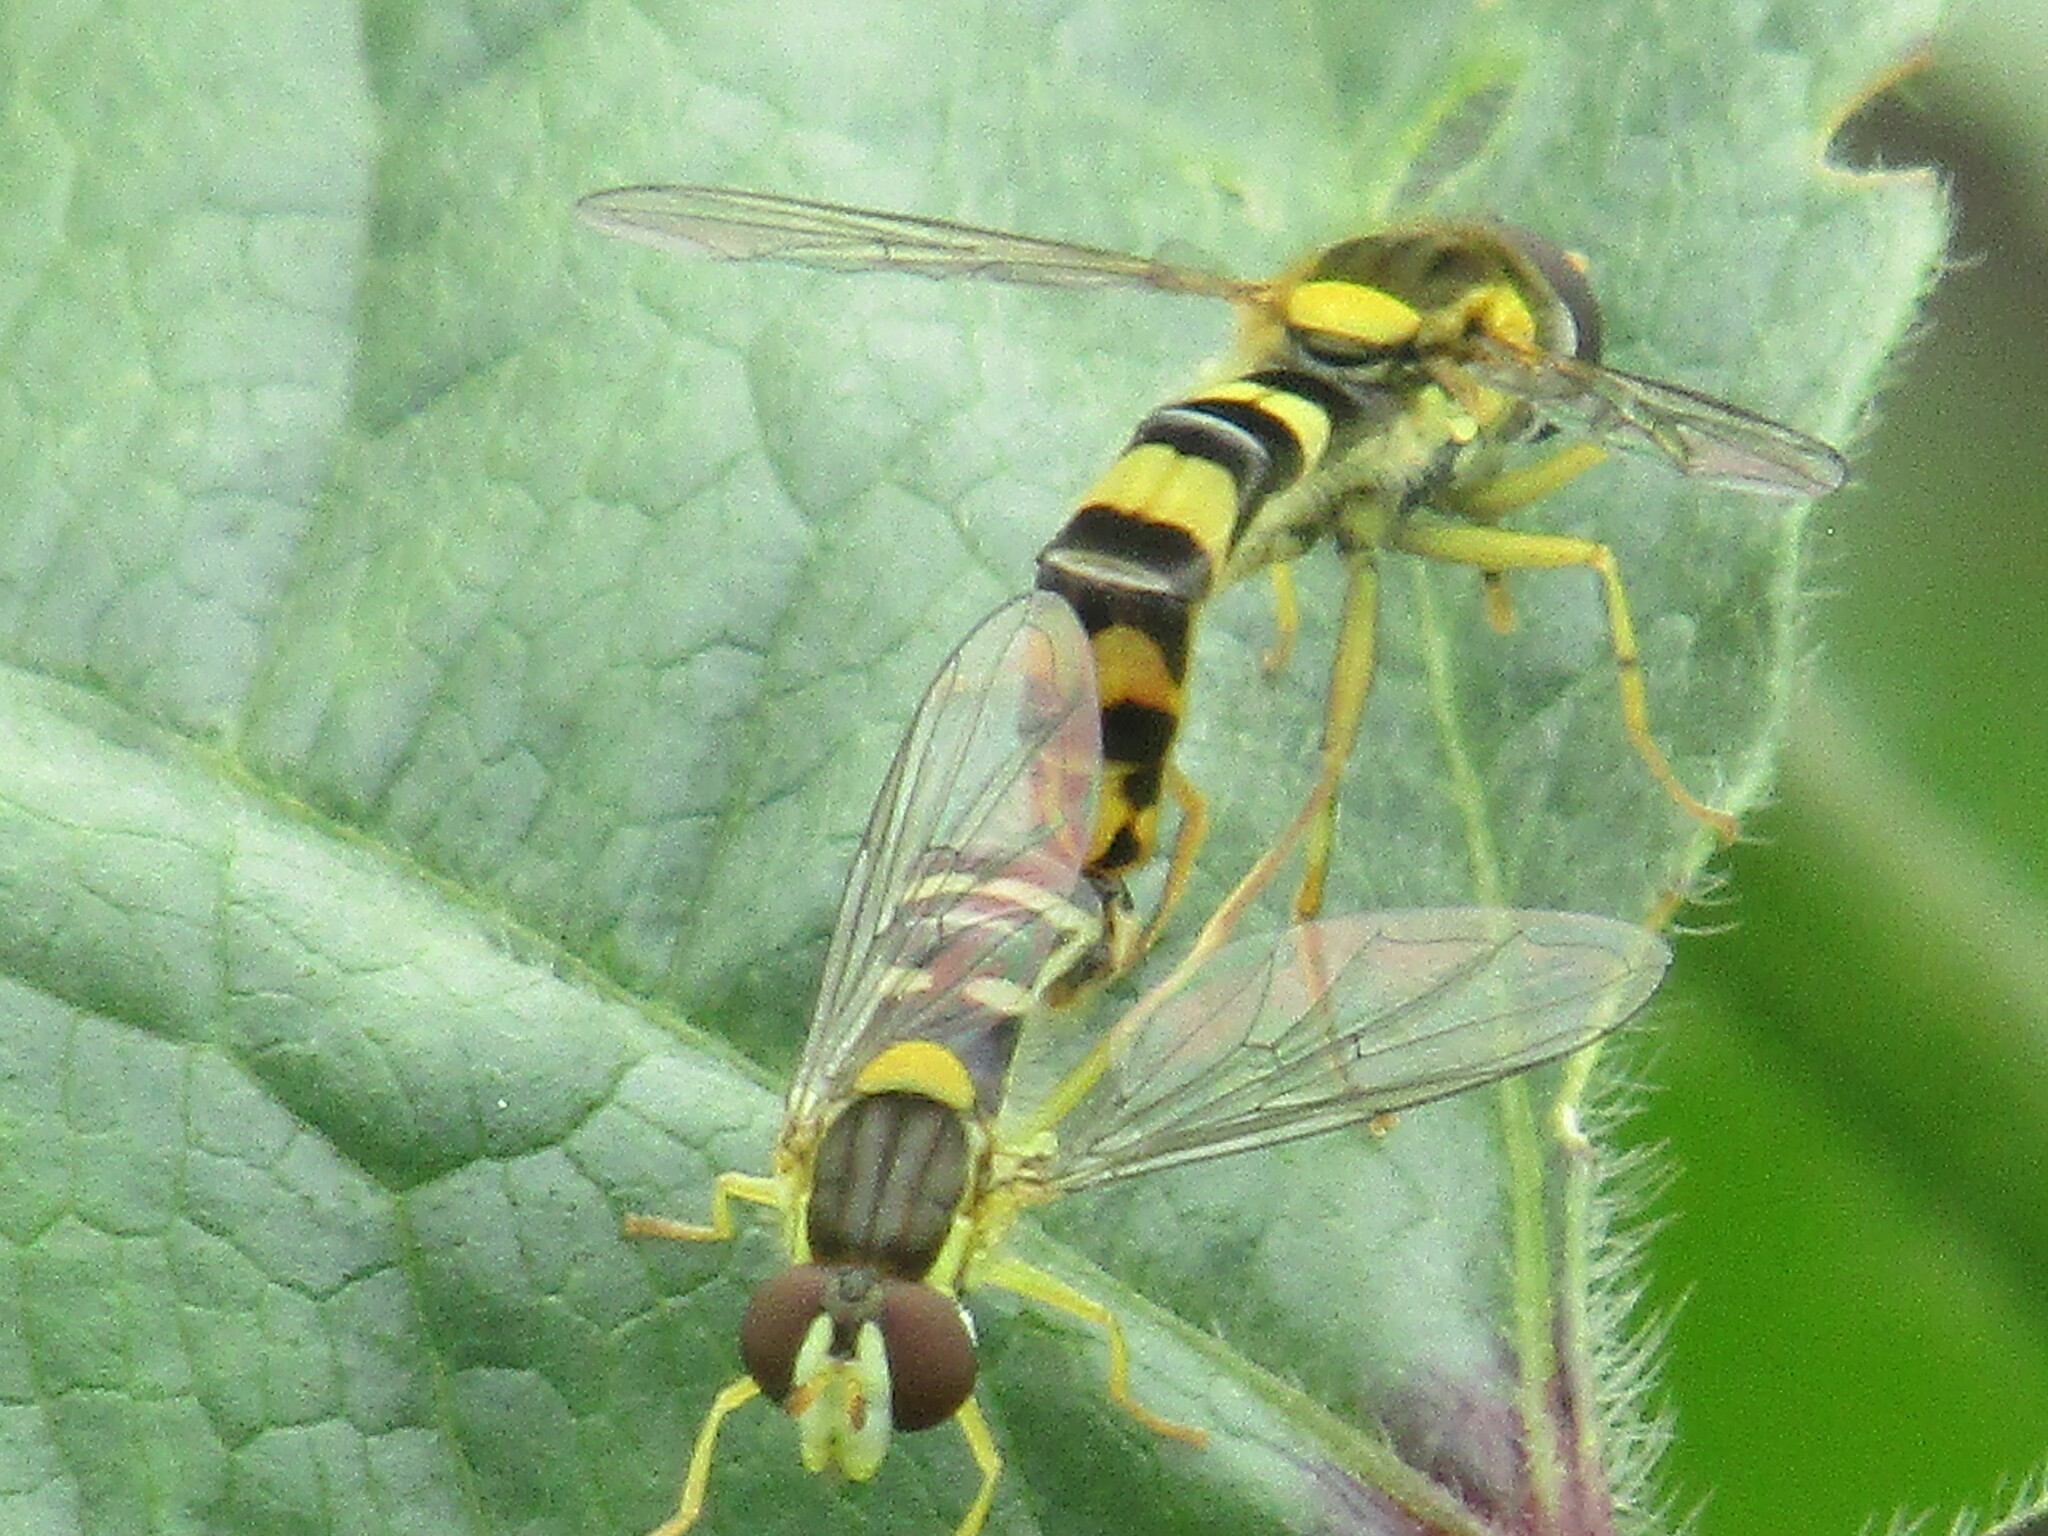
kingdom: Animalia
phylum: Arthropoda
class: Insecta
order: Diptera
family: Syrphidae
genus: Sphaerophoria
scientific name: Sphaerophoria scripta
